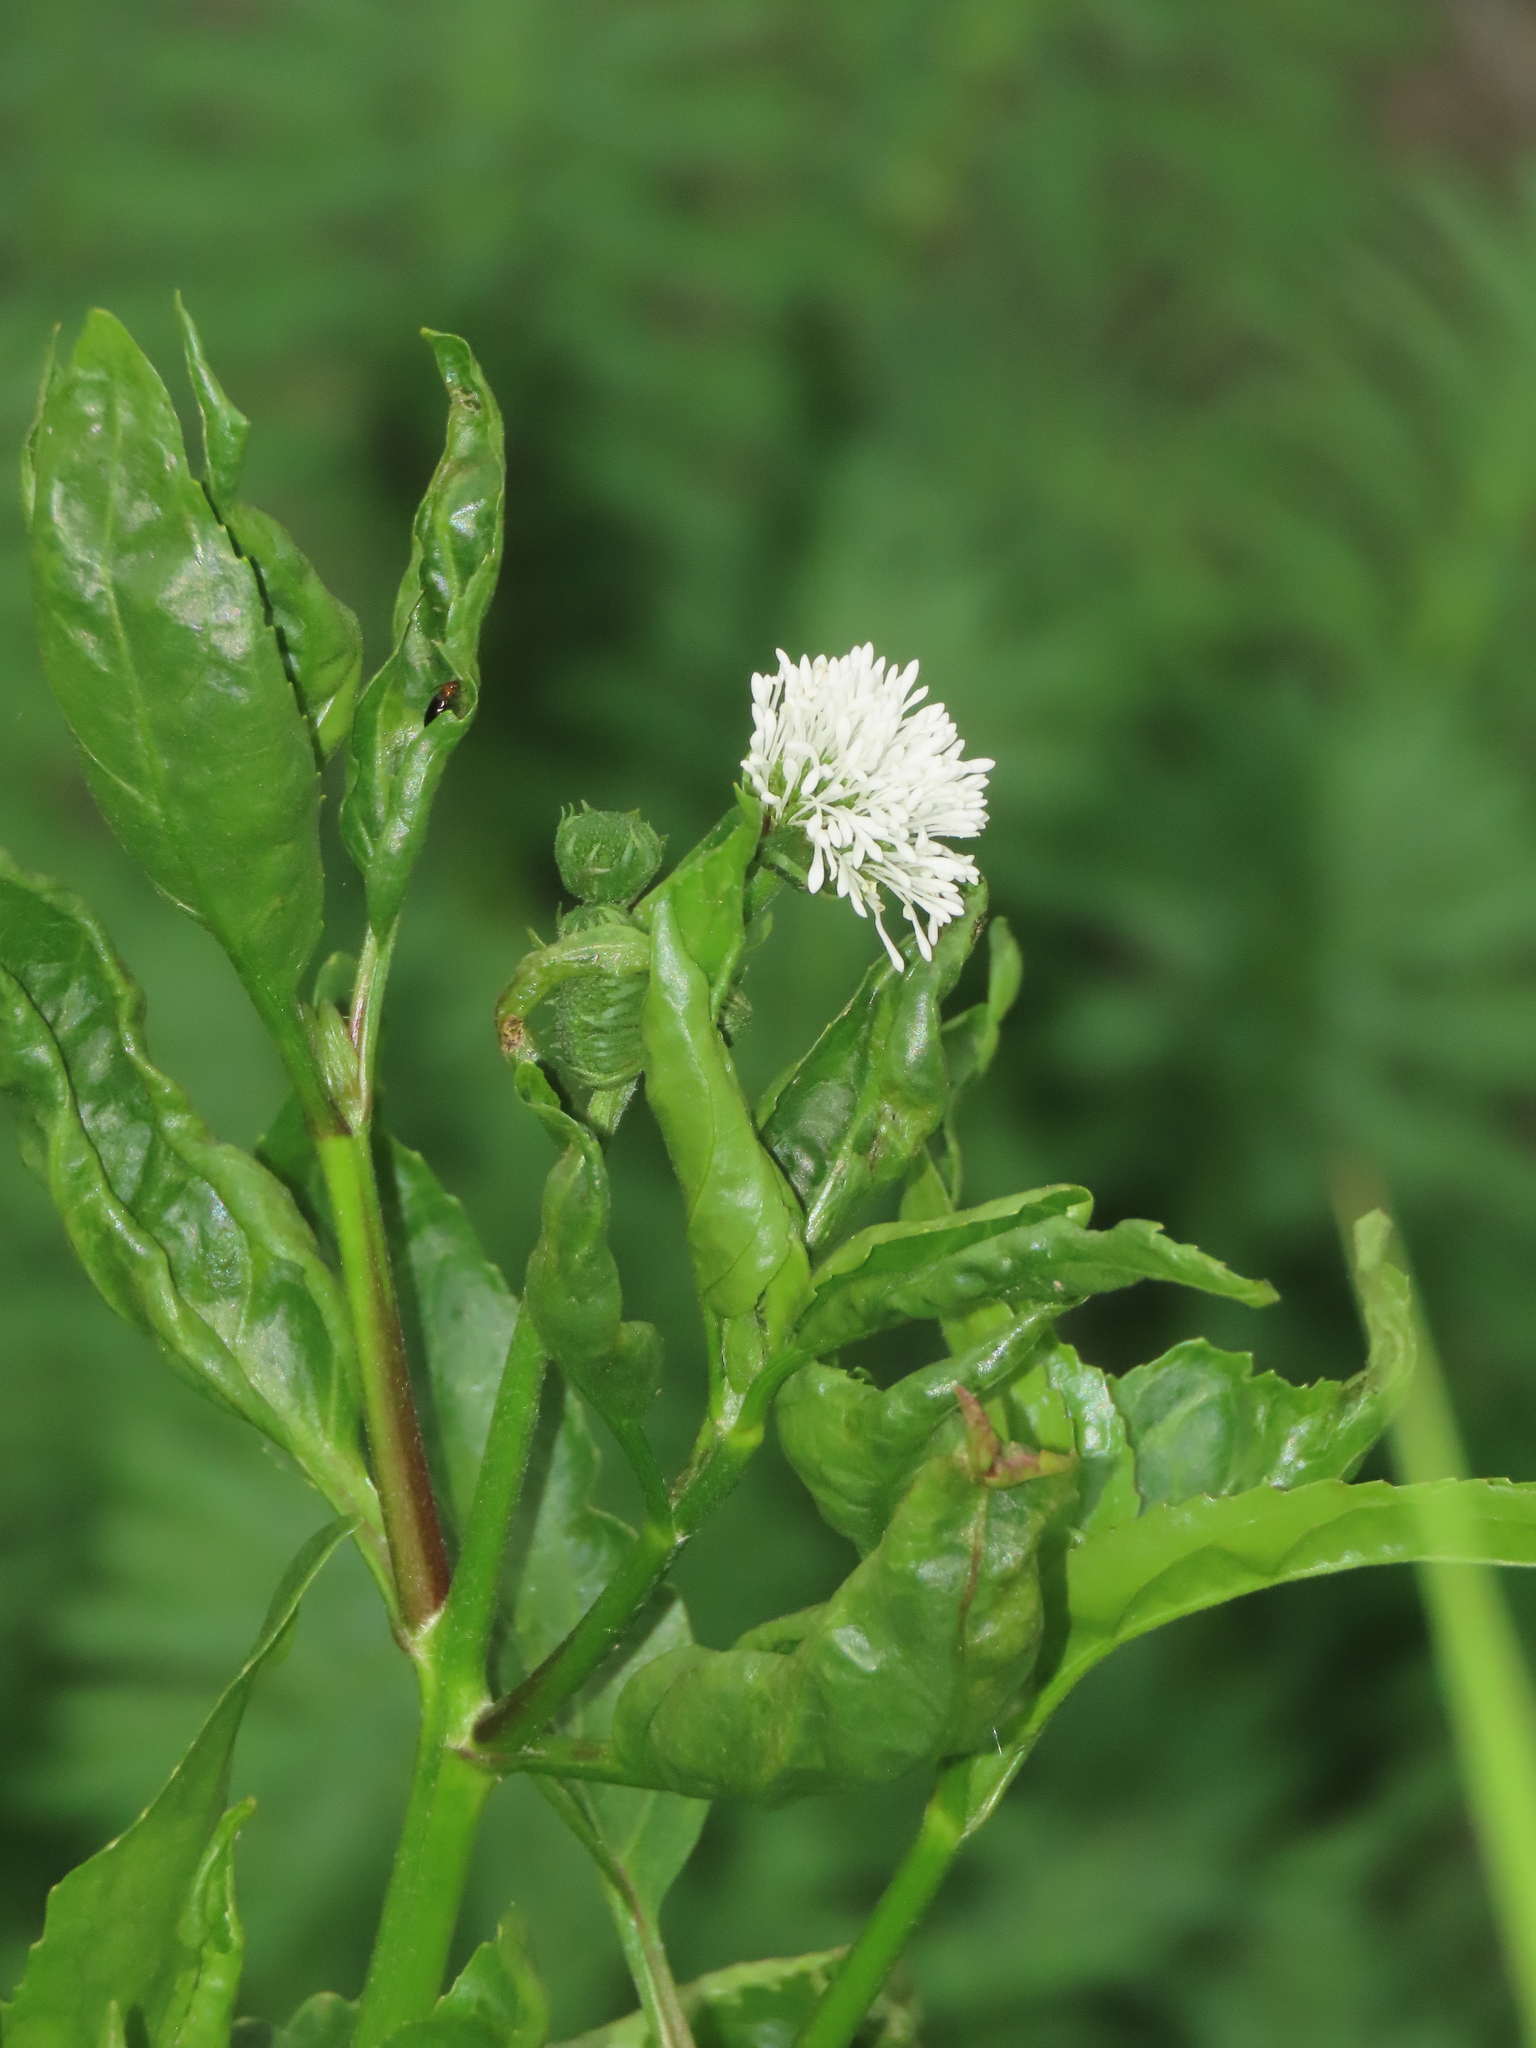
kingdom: Plantae
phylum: Tracheophyta
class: Magnoliopsida
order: Asterales
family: Asteraceae
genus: Gymnocoronis
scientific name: Gymnocoronis spilanthoides
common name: Senegal teaplant
